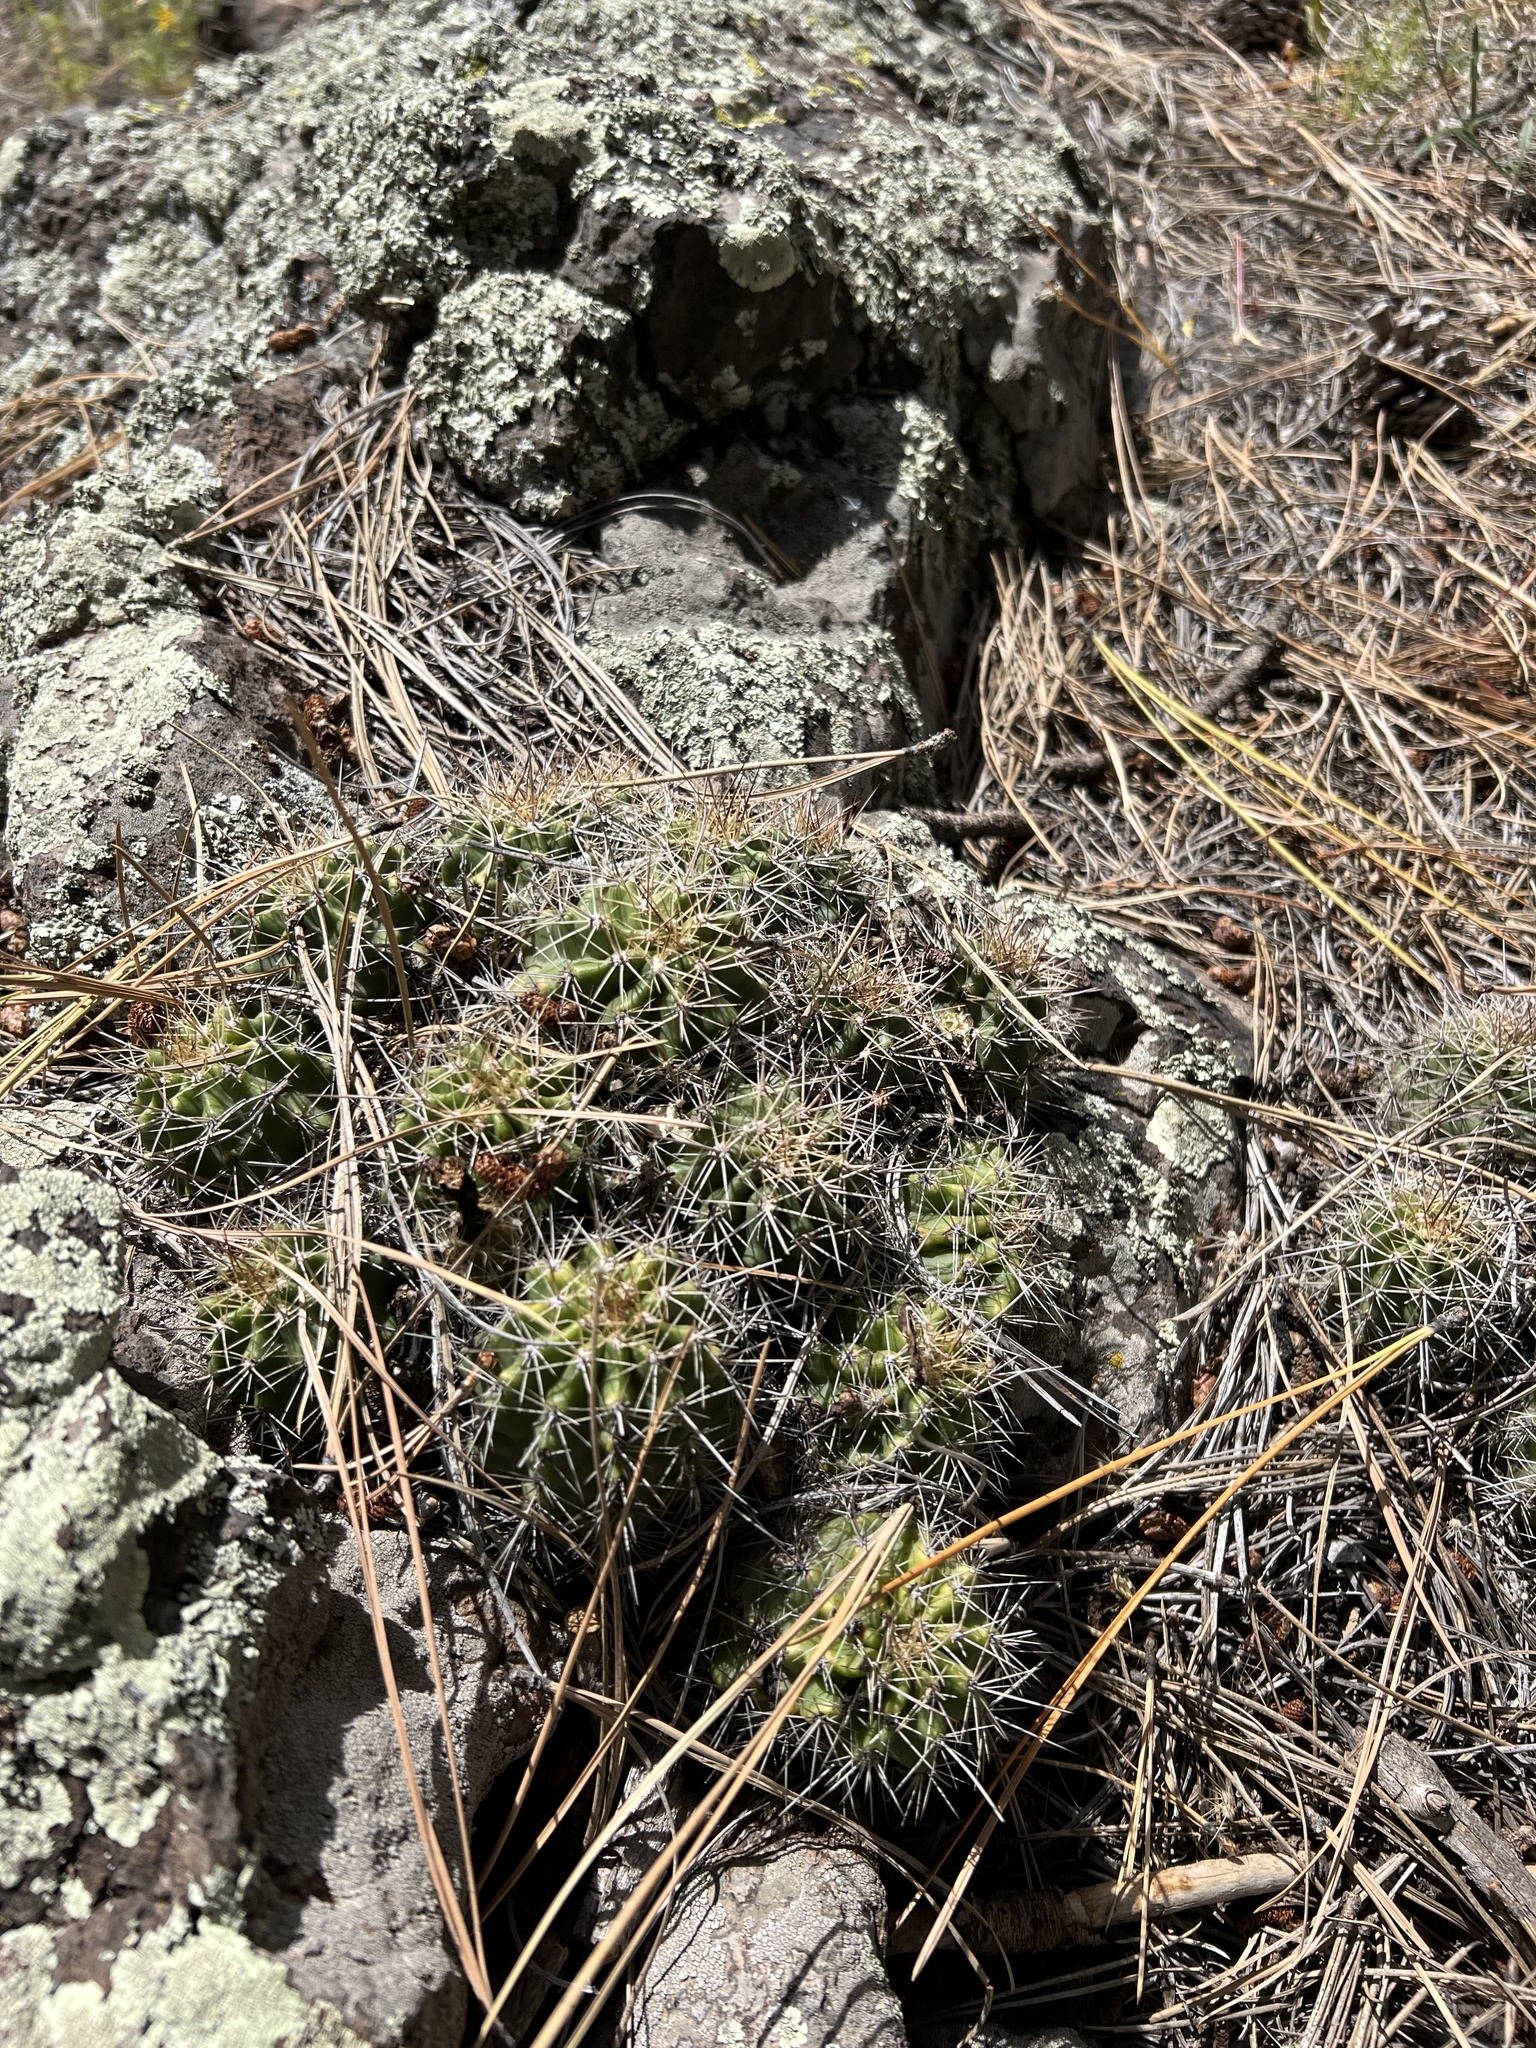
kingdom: Plantae
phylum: Tracheophyta
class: Magnoliopsida
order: Caryophyllales
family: Cactaceae
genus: Echinocereus
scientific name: Echinocereus bakeri
